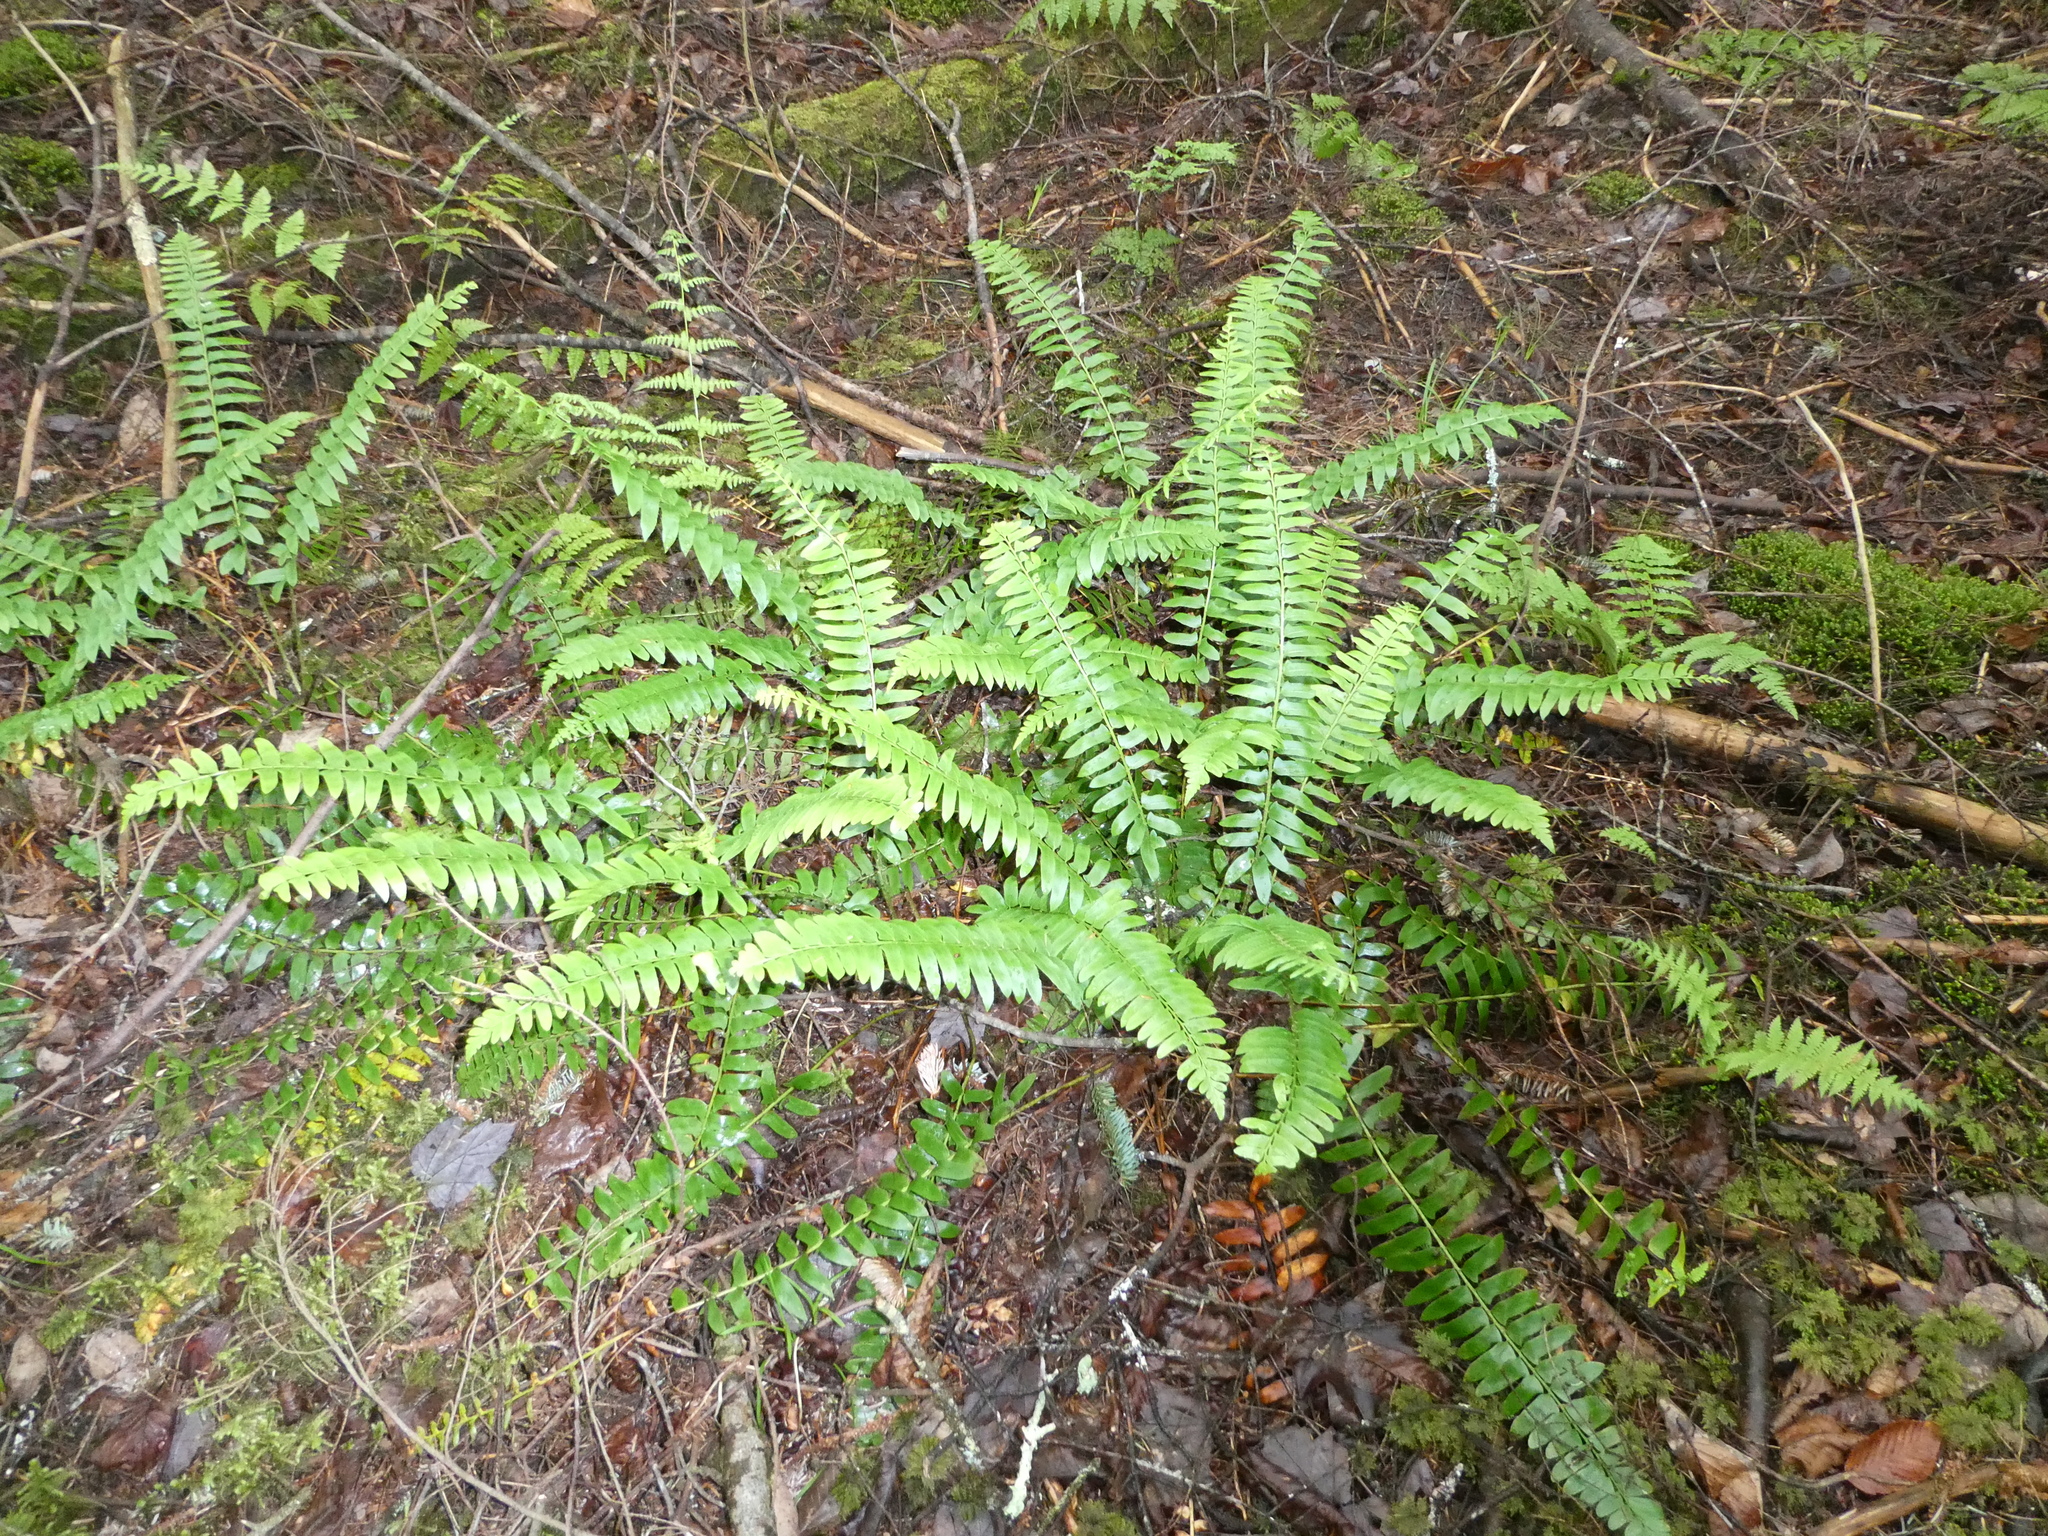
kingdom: Plantae
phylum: Tracheophyta
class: Polypodiopsida
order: Polypodiales
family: Dryopteridaceae
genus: Polystichum
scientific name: Polystichum acrostichoides
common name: Christmas fern
